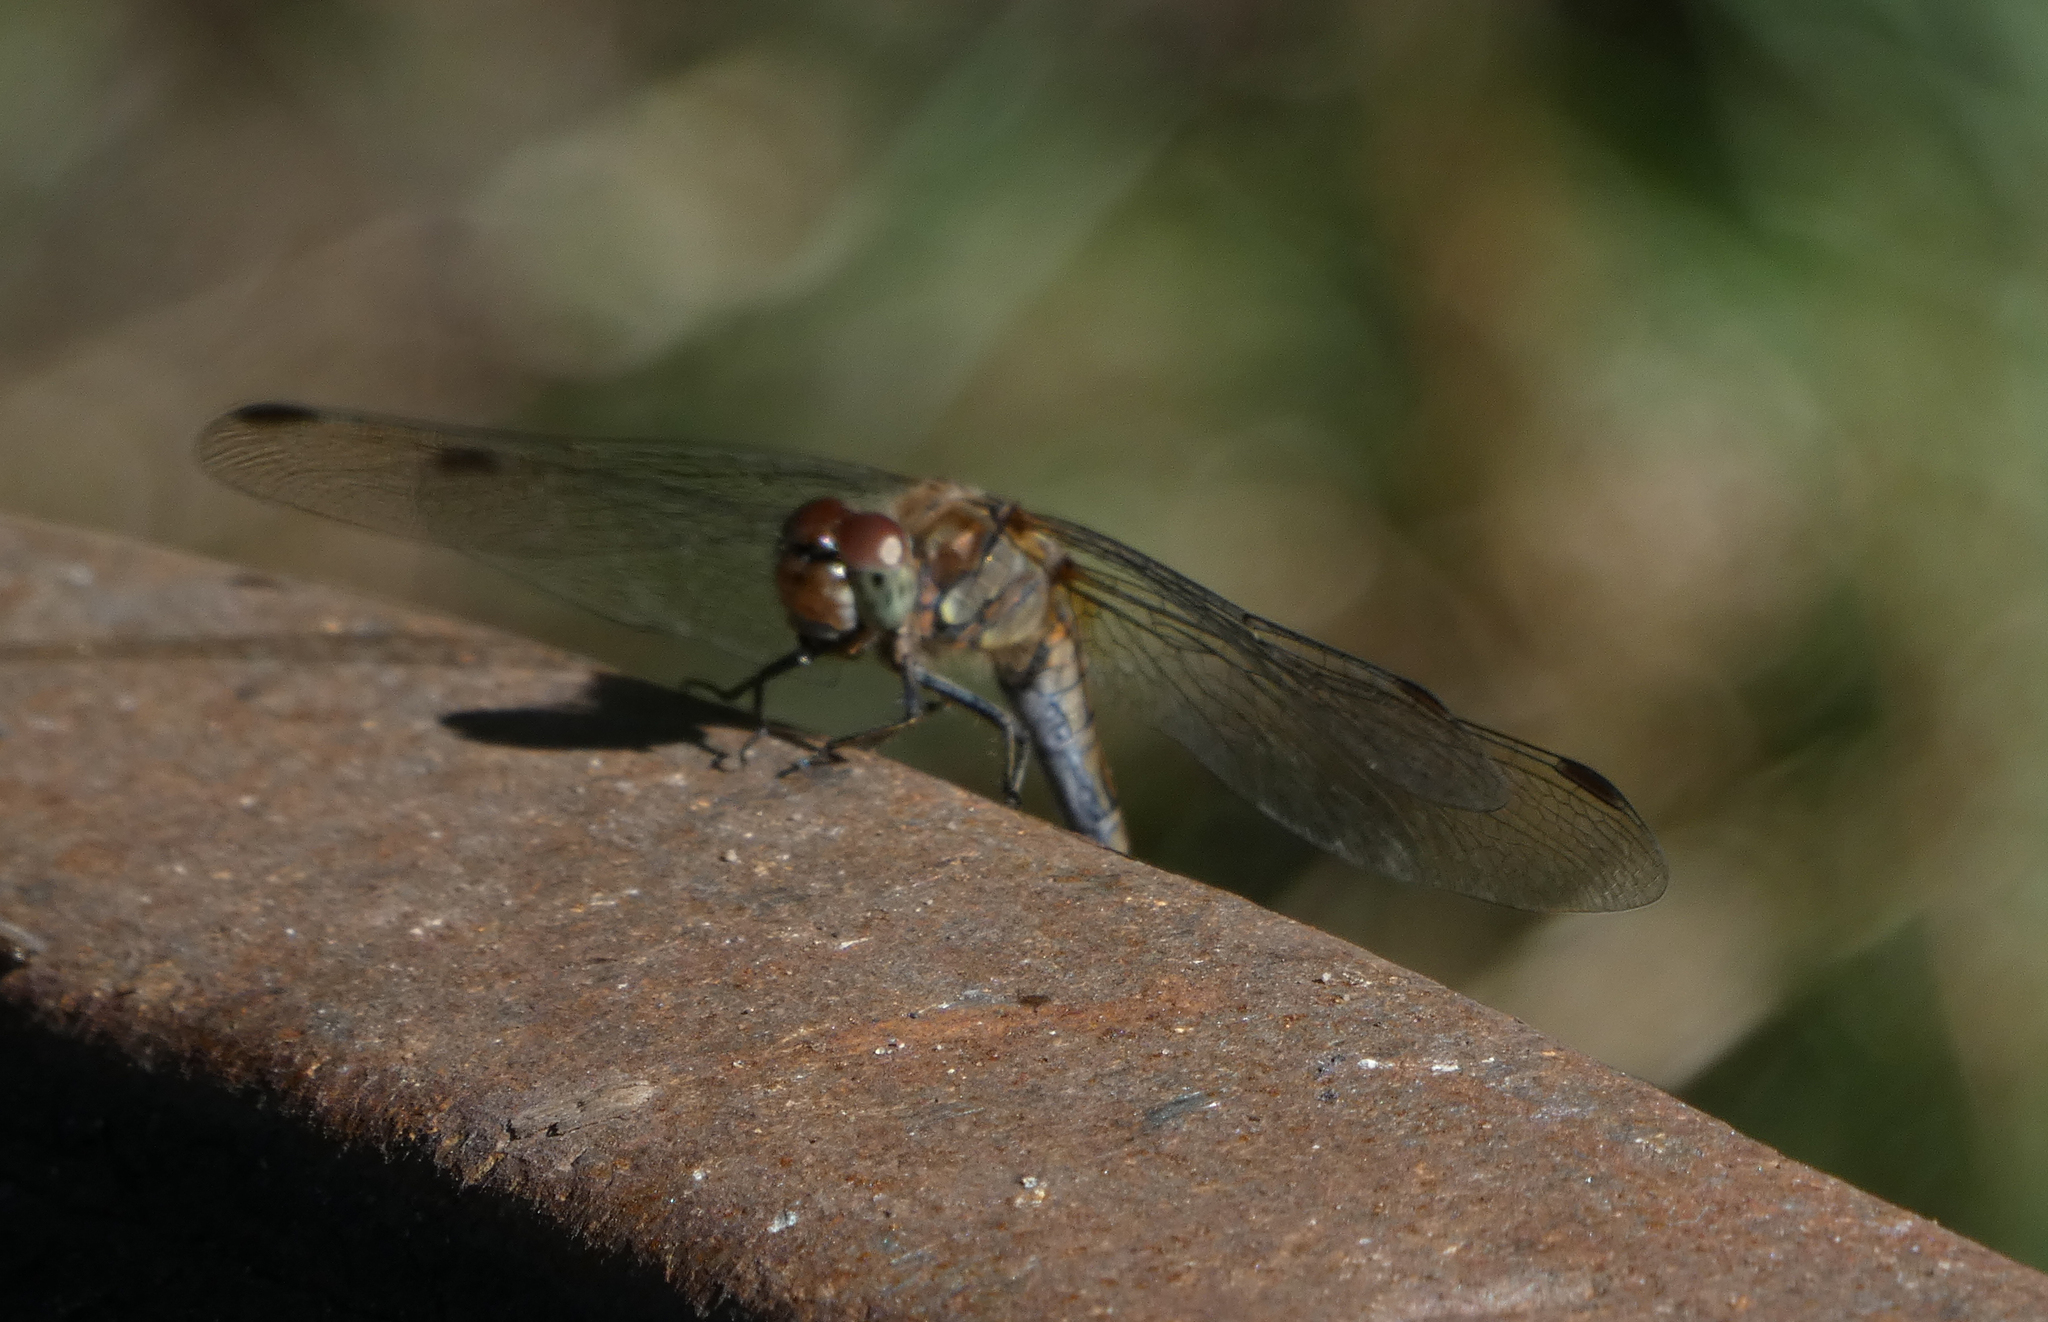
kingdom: Animalia
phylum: Arthropoda
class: Insecta
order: Odonata
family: Libellulidae
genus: Sympetrum
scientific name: Sympetrum striolatum
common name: Common darter
